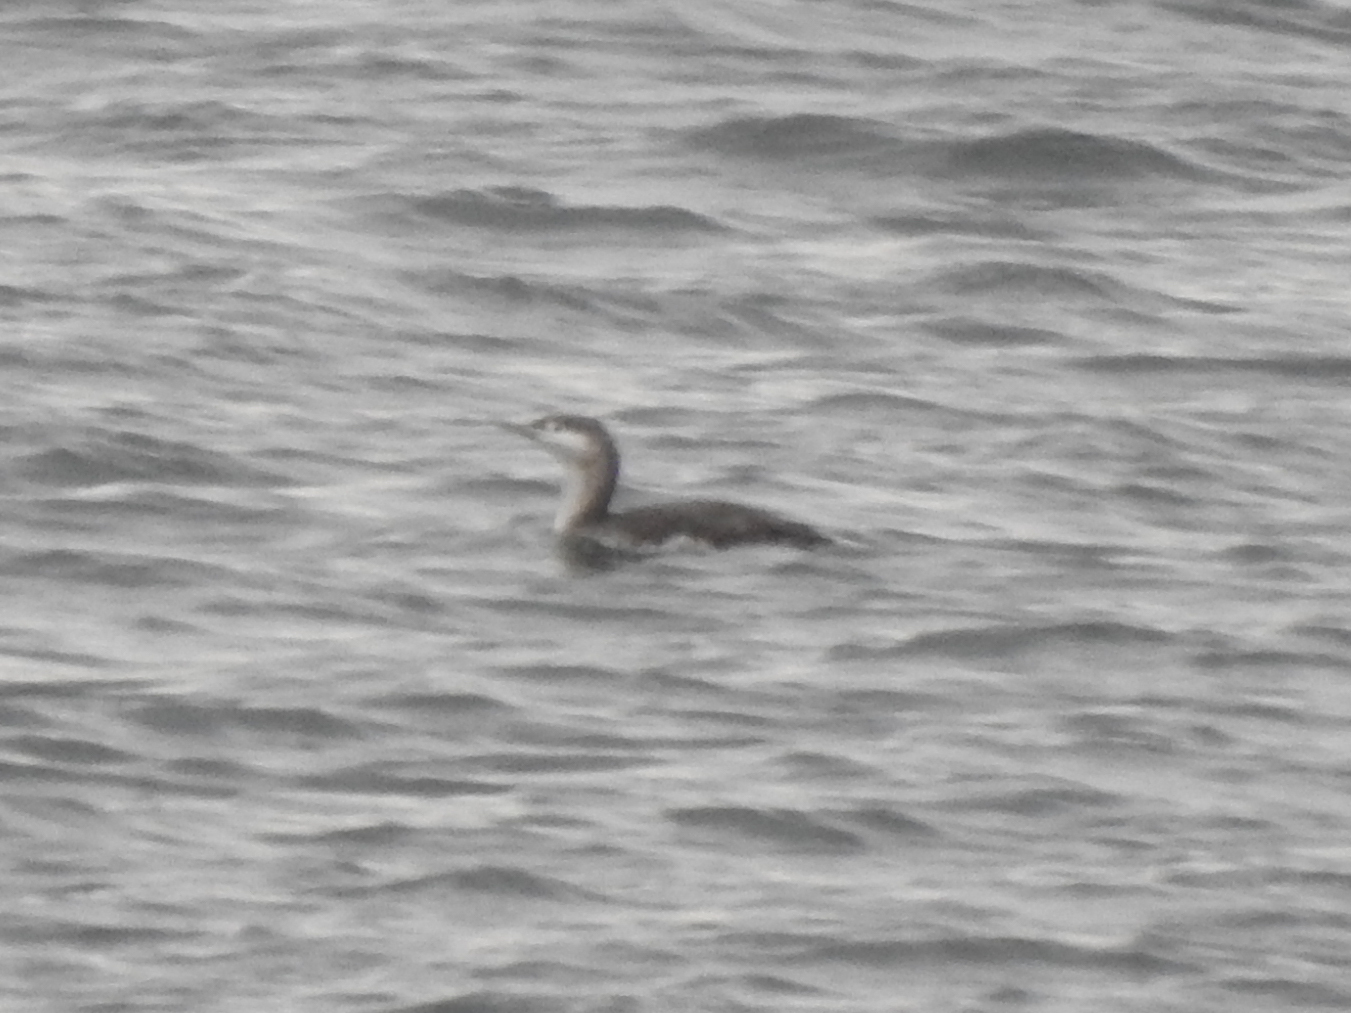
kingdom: Animalia
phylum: Chordata
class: Aves
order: Gaviiformes
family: Gaviidae
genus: Gavia
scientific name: Gavia stellata
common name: Red-throated loon
